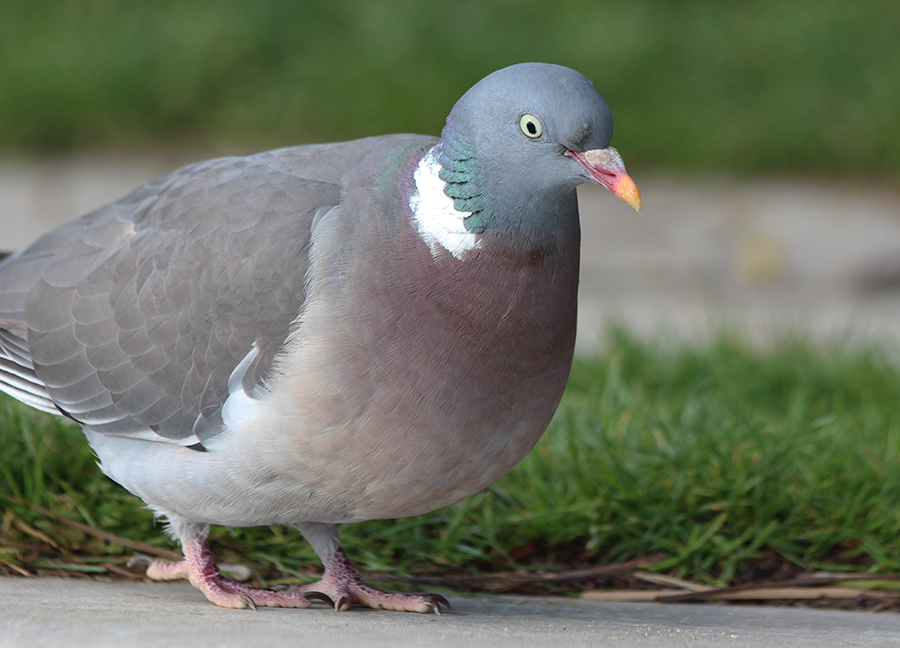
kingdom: Animalia
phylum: Chordata
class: Aves
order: Columbiformes
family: Columbidae
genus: Columba
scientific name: Columba palumbus
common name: Common wood pigeon
